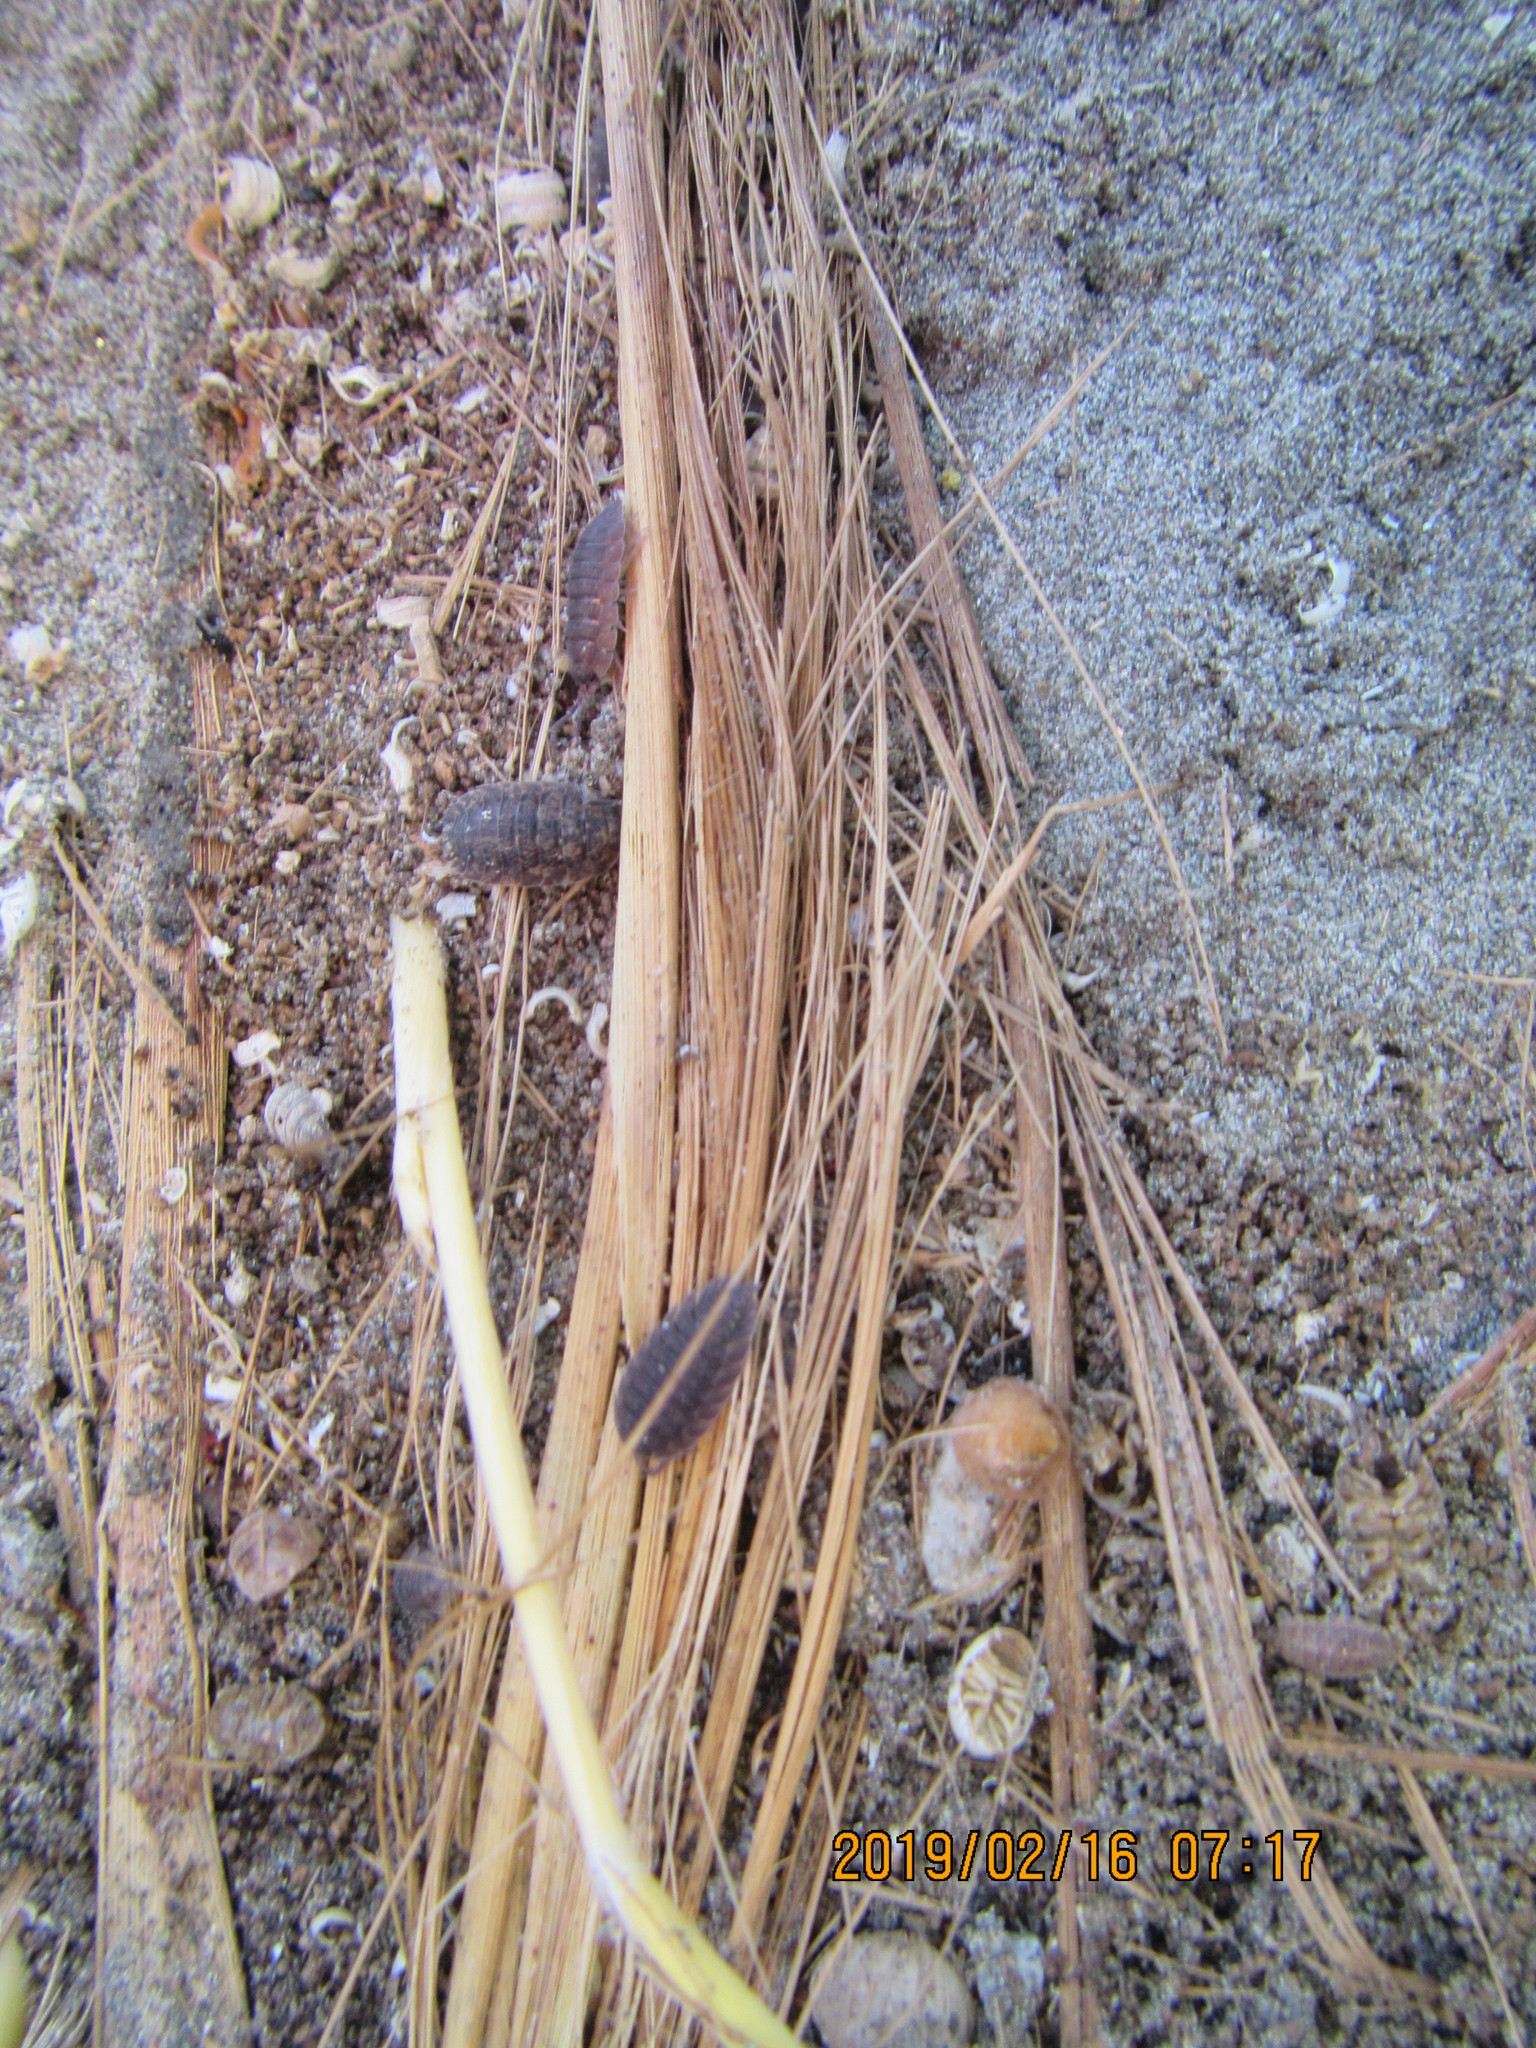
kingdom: Animalia
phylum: Arthropoda
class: Malacostraca
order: Isopoda
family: Porcellionidae
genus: Porcellio
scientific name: Porcellio scaber
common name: Common rough woodlouse
